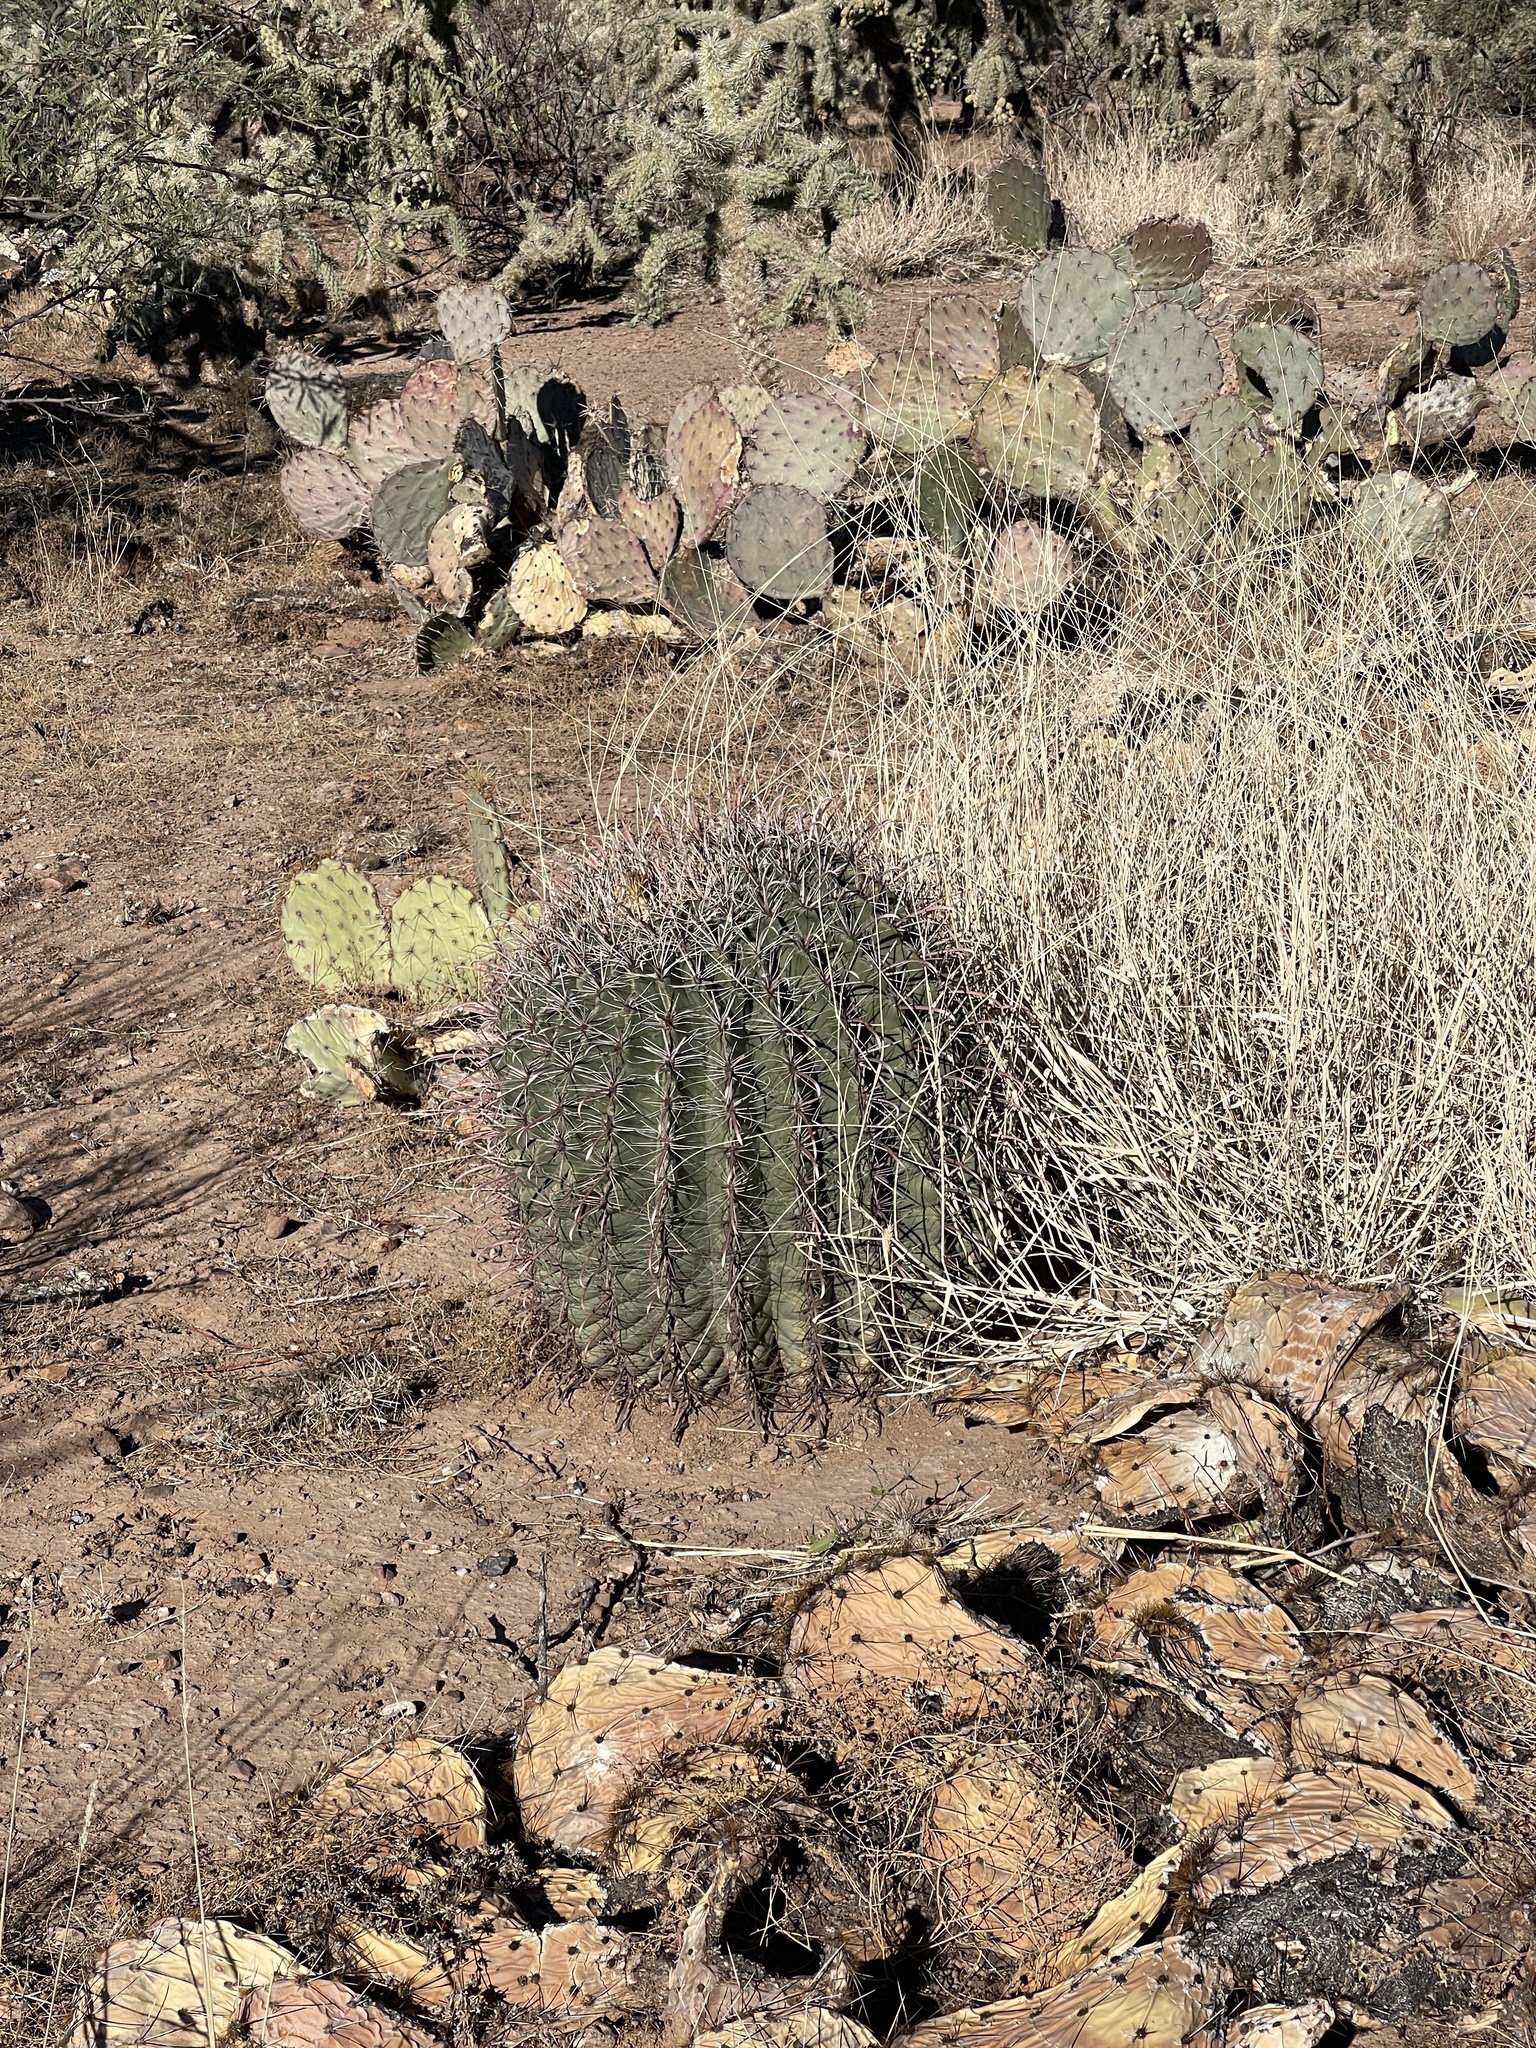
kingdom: Plantae
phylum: Tracheophyta
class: Magnoliopsida
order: Caryophyllales
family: Cactaceae
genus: Ferocactus
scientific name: Ferocactus wislizeni
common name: Candy barrel cactus
